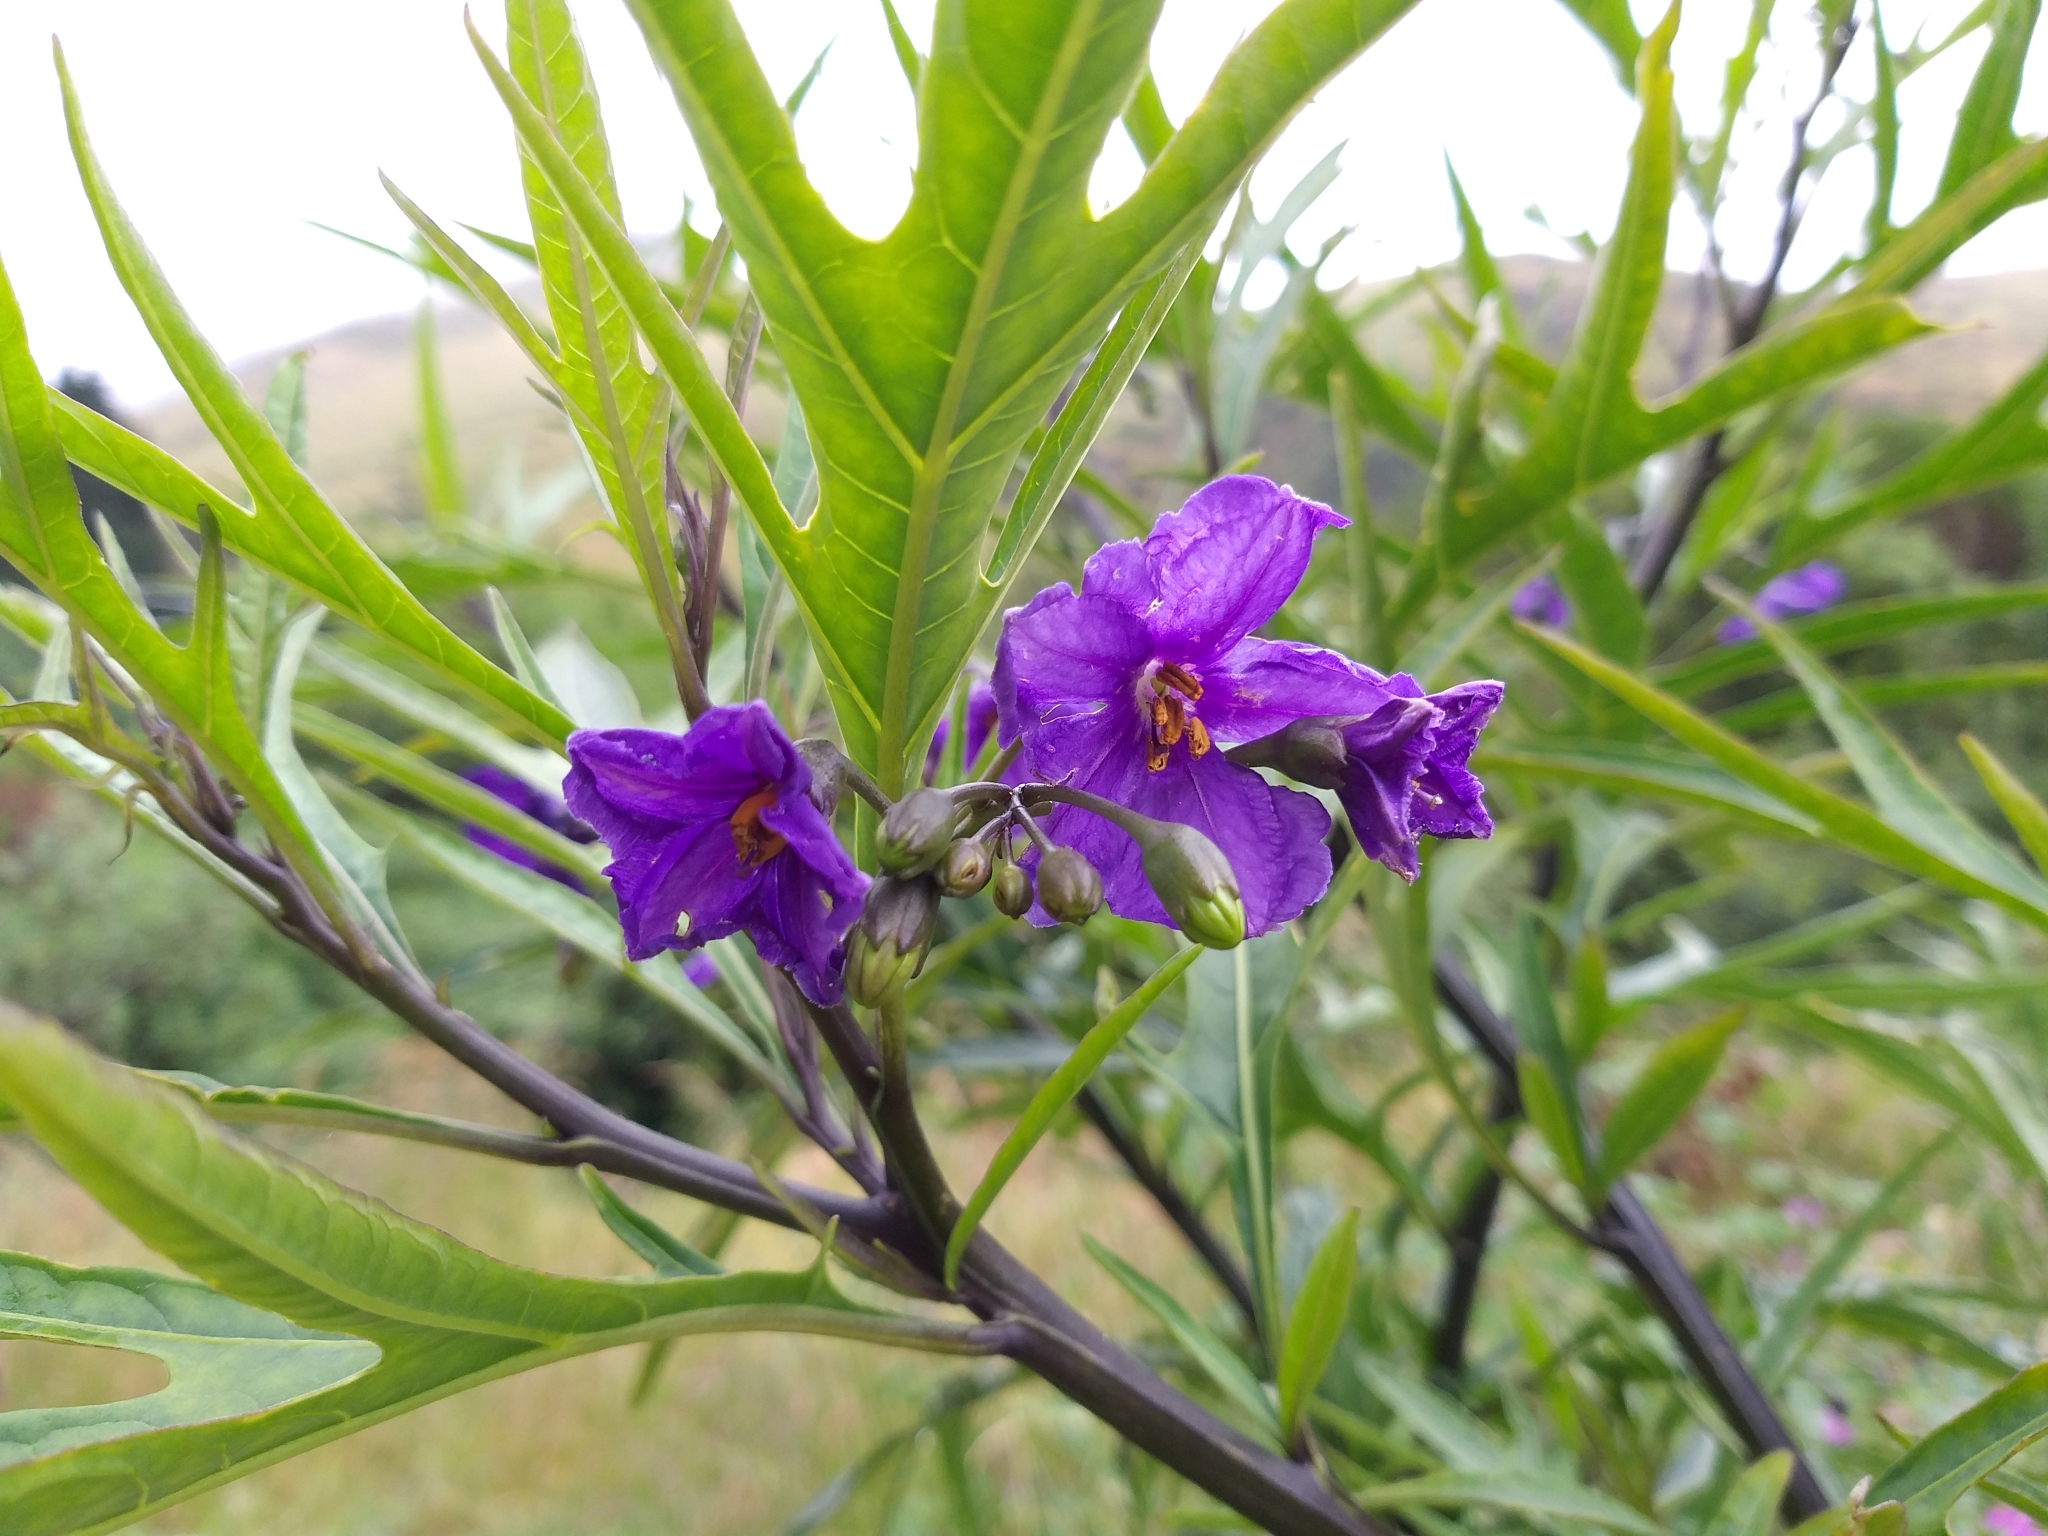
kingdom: Plantae
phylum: Tracheophyta
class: Magnoliopsida
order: Solanales
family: Solanaceae
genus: Solanum
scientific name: Solanum laciniatum
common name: Kangaroo-apple
